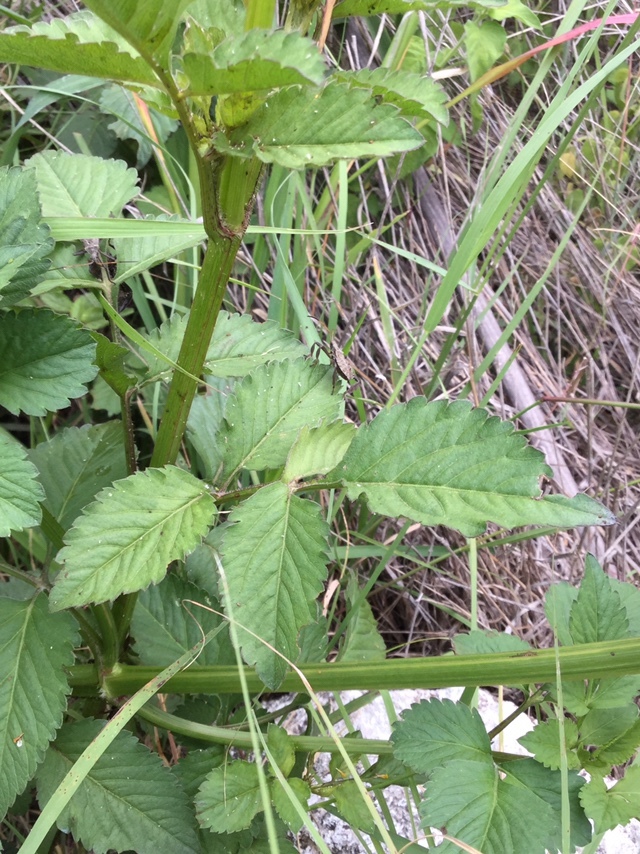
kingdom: Plantae
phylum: Tracheophyta
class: Magnoliopsida
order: Asterales
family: Asteraceae
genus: Bidens
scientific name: Bidens pilosa
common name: Black-jack
